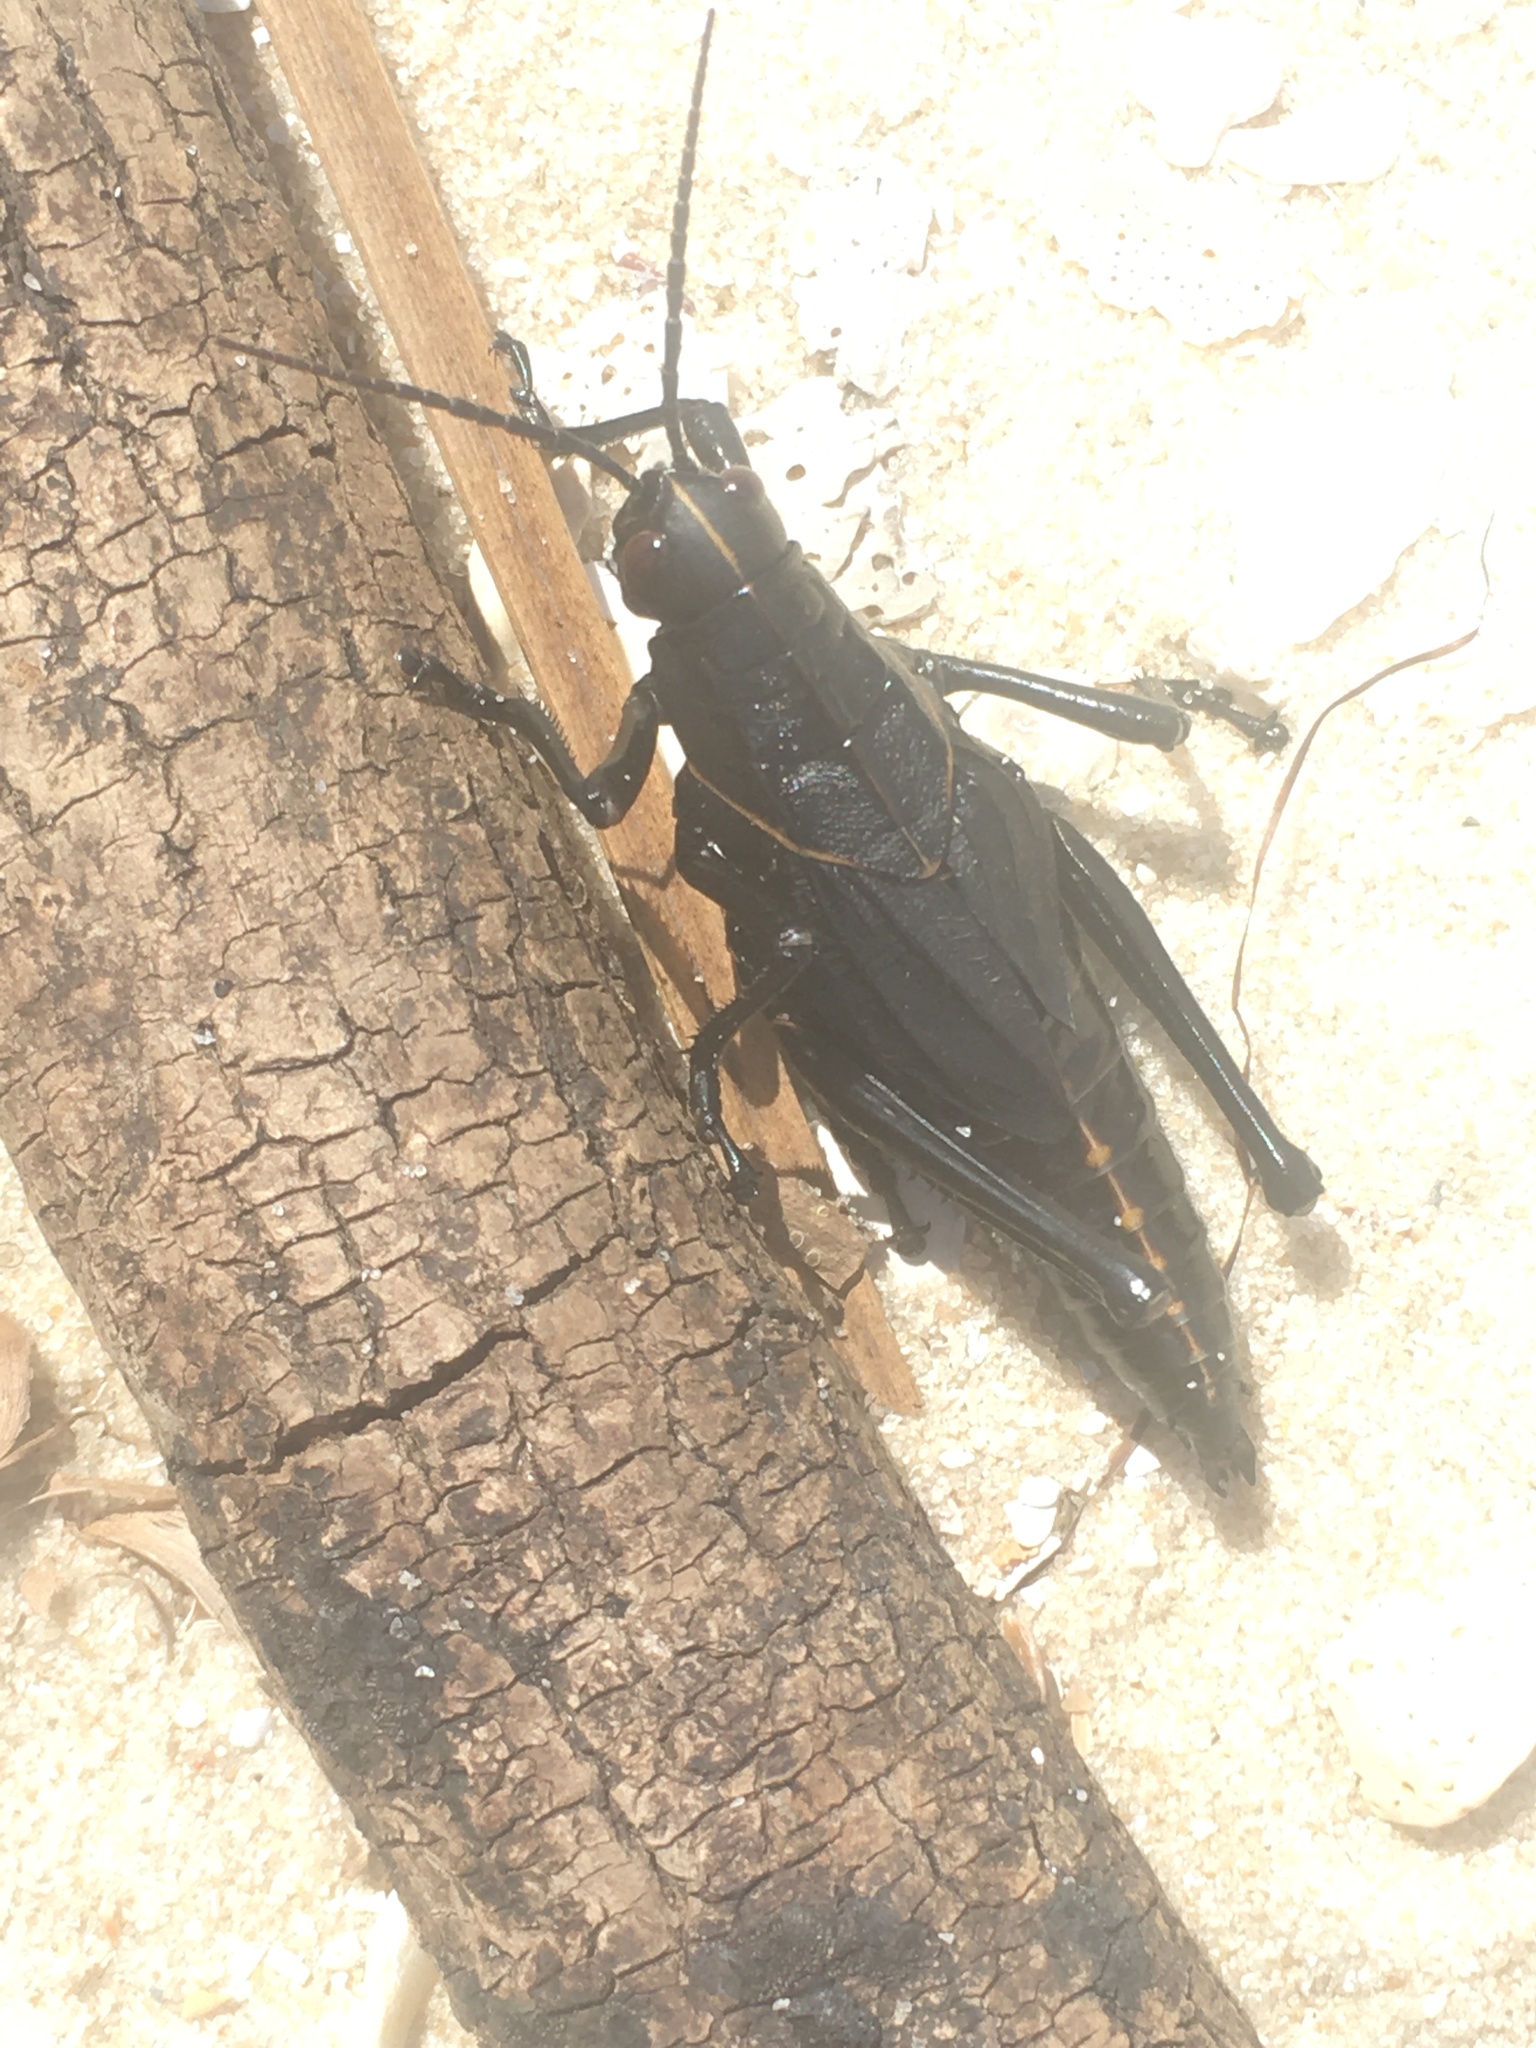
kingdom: Animalia
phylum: Arthropoda
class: Insecta
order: Orthoptera
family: Romaleidae
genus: Romalea
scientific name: Romalea microptera
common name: Eastern lubber grasshopper
